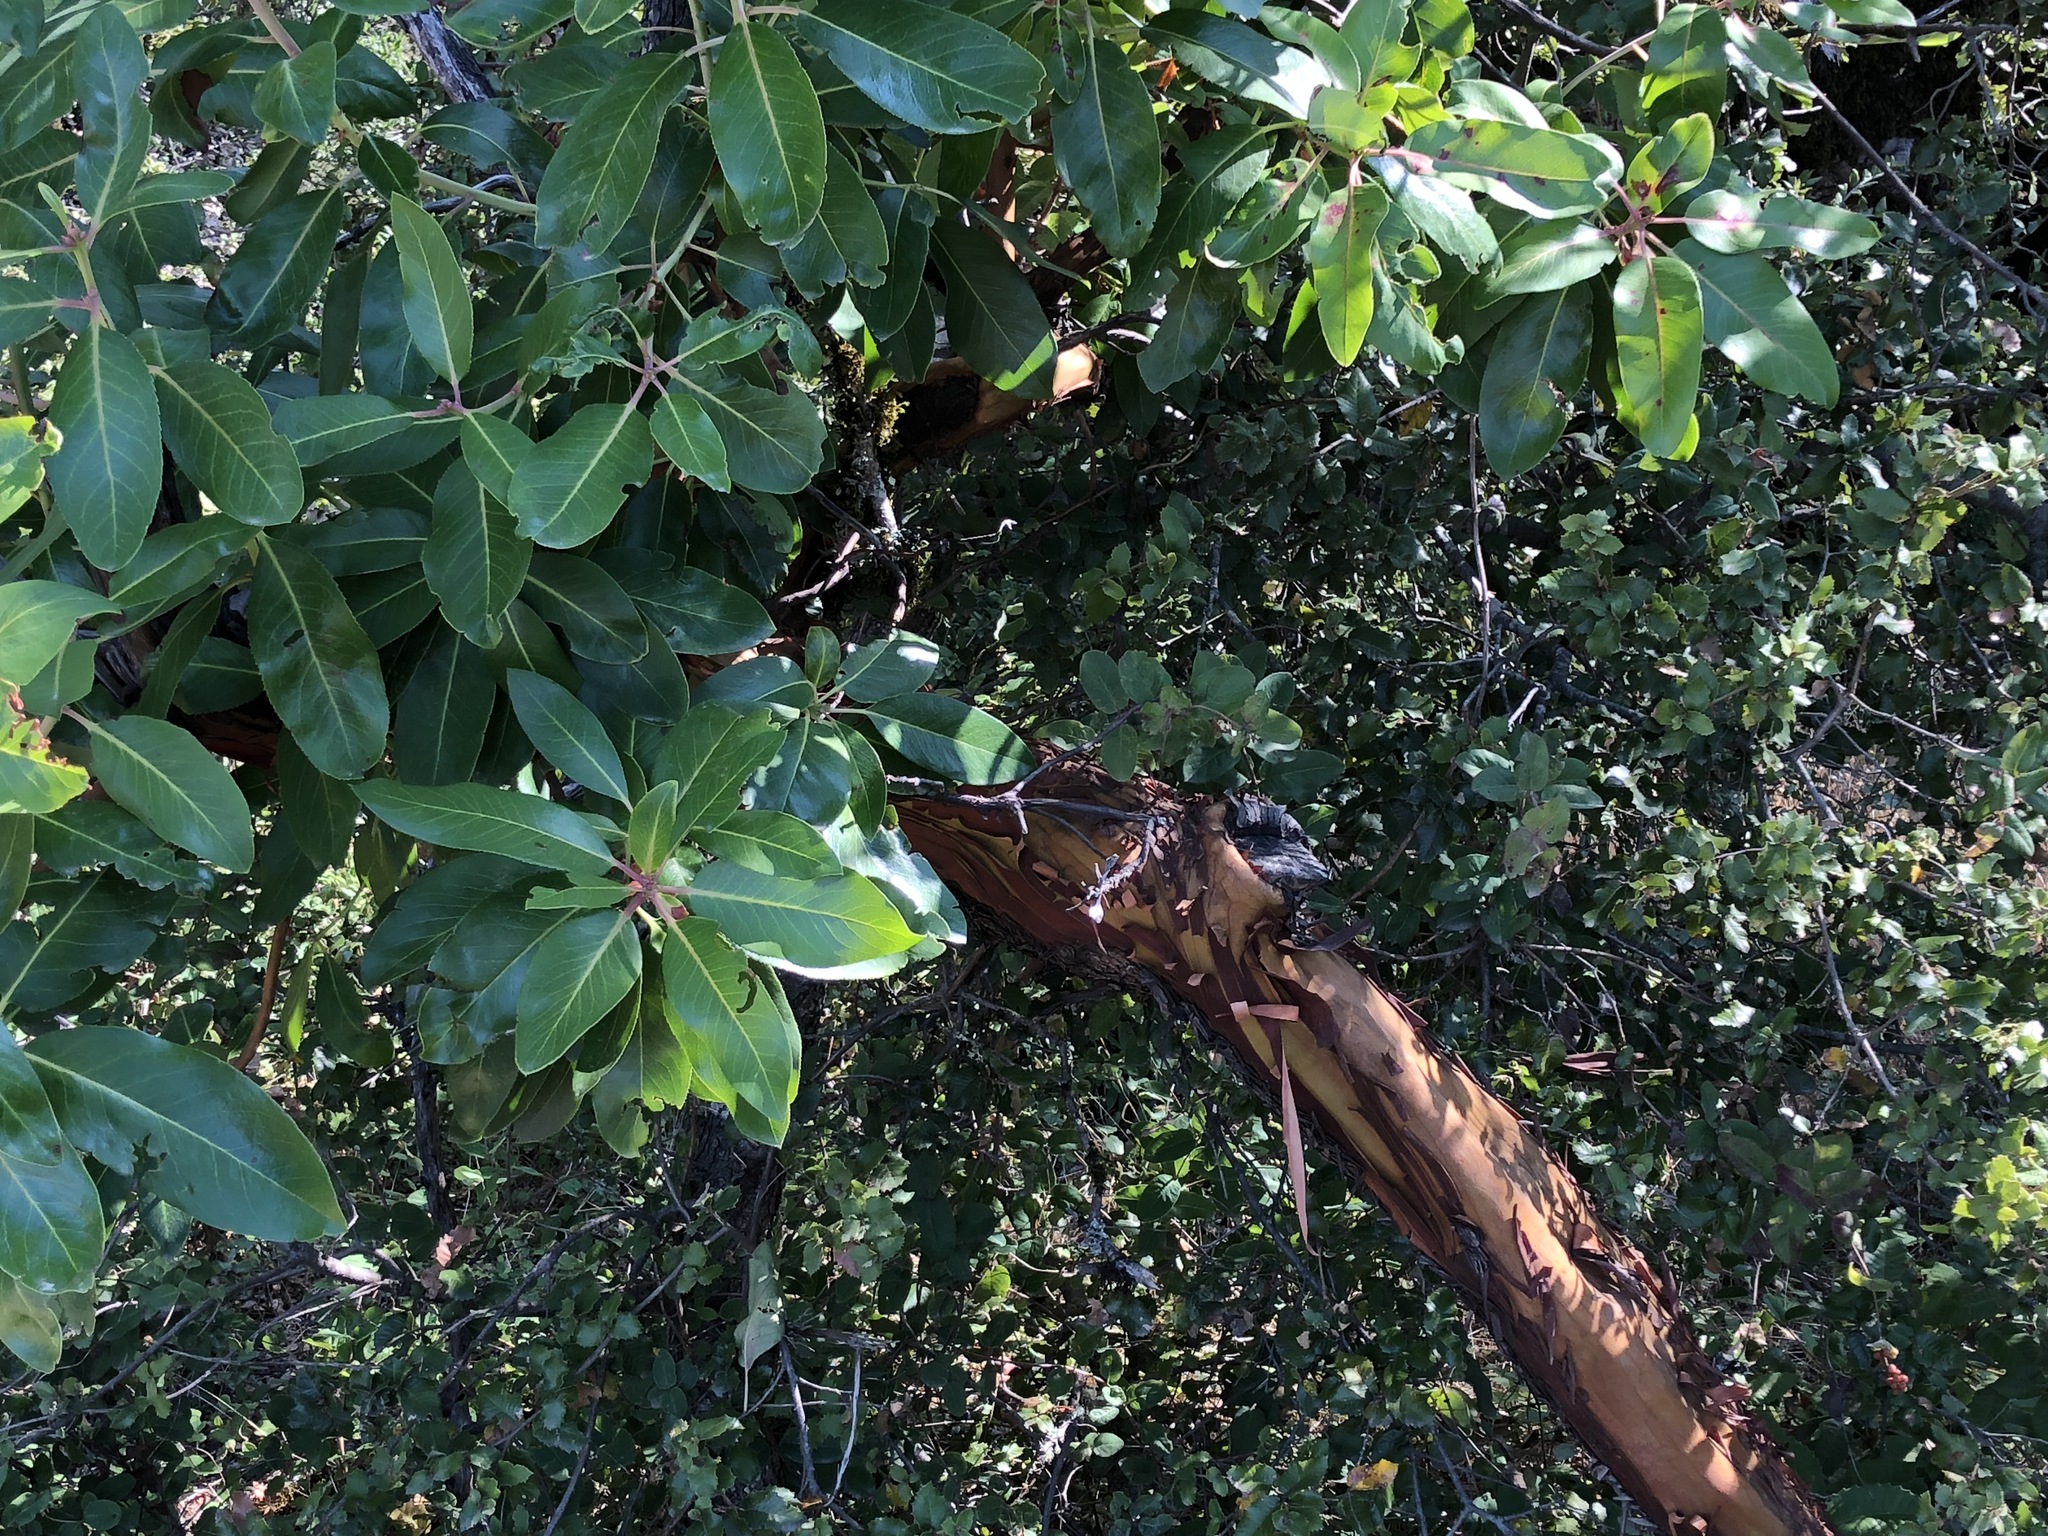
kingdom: Plantae
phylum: Tracheophyta
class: Magnoliopsida
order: Ericales
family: Ericaceae
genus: Arbutus
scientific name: Arbutus menziesii
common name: Pacific madrone
